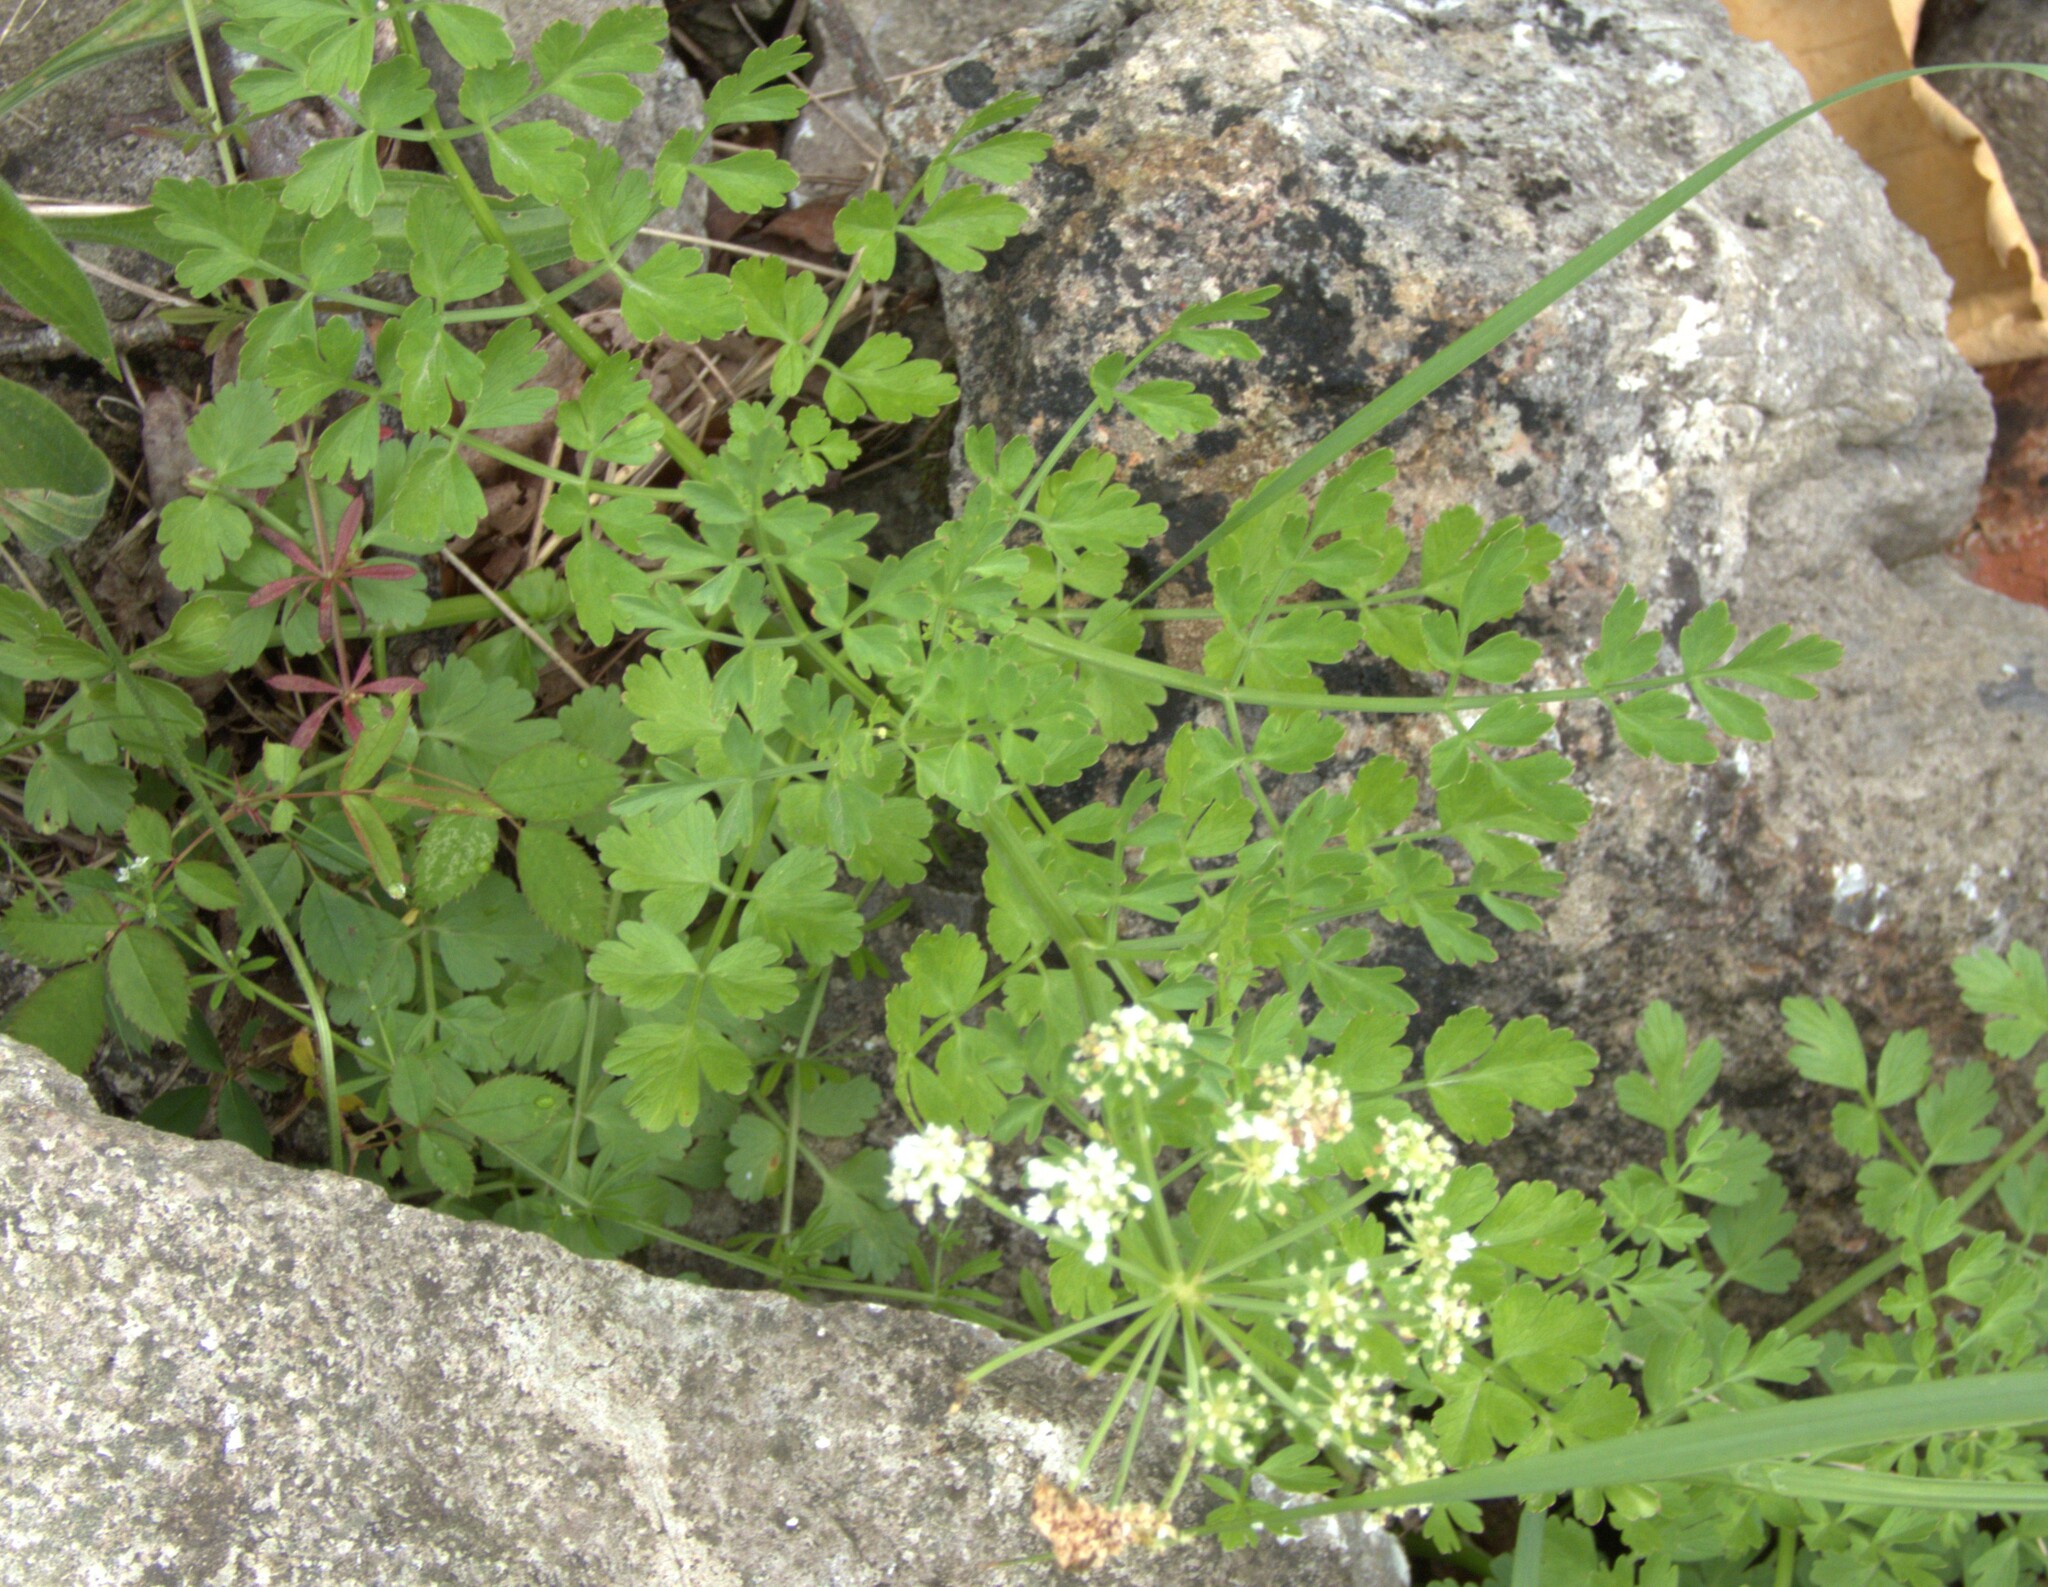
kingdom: Plantae
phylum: Tracheophyta
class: Magnoliopsida
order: Apiales
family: Apiaceae
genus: Oenanthe
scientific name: Oenanthe crocata
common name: Hemlock water-dropwort
